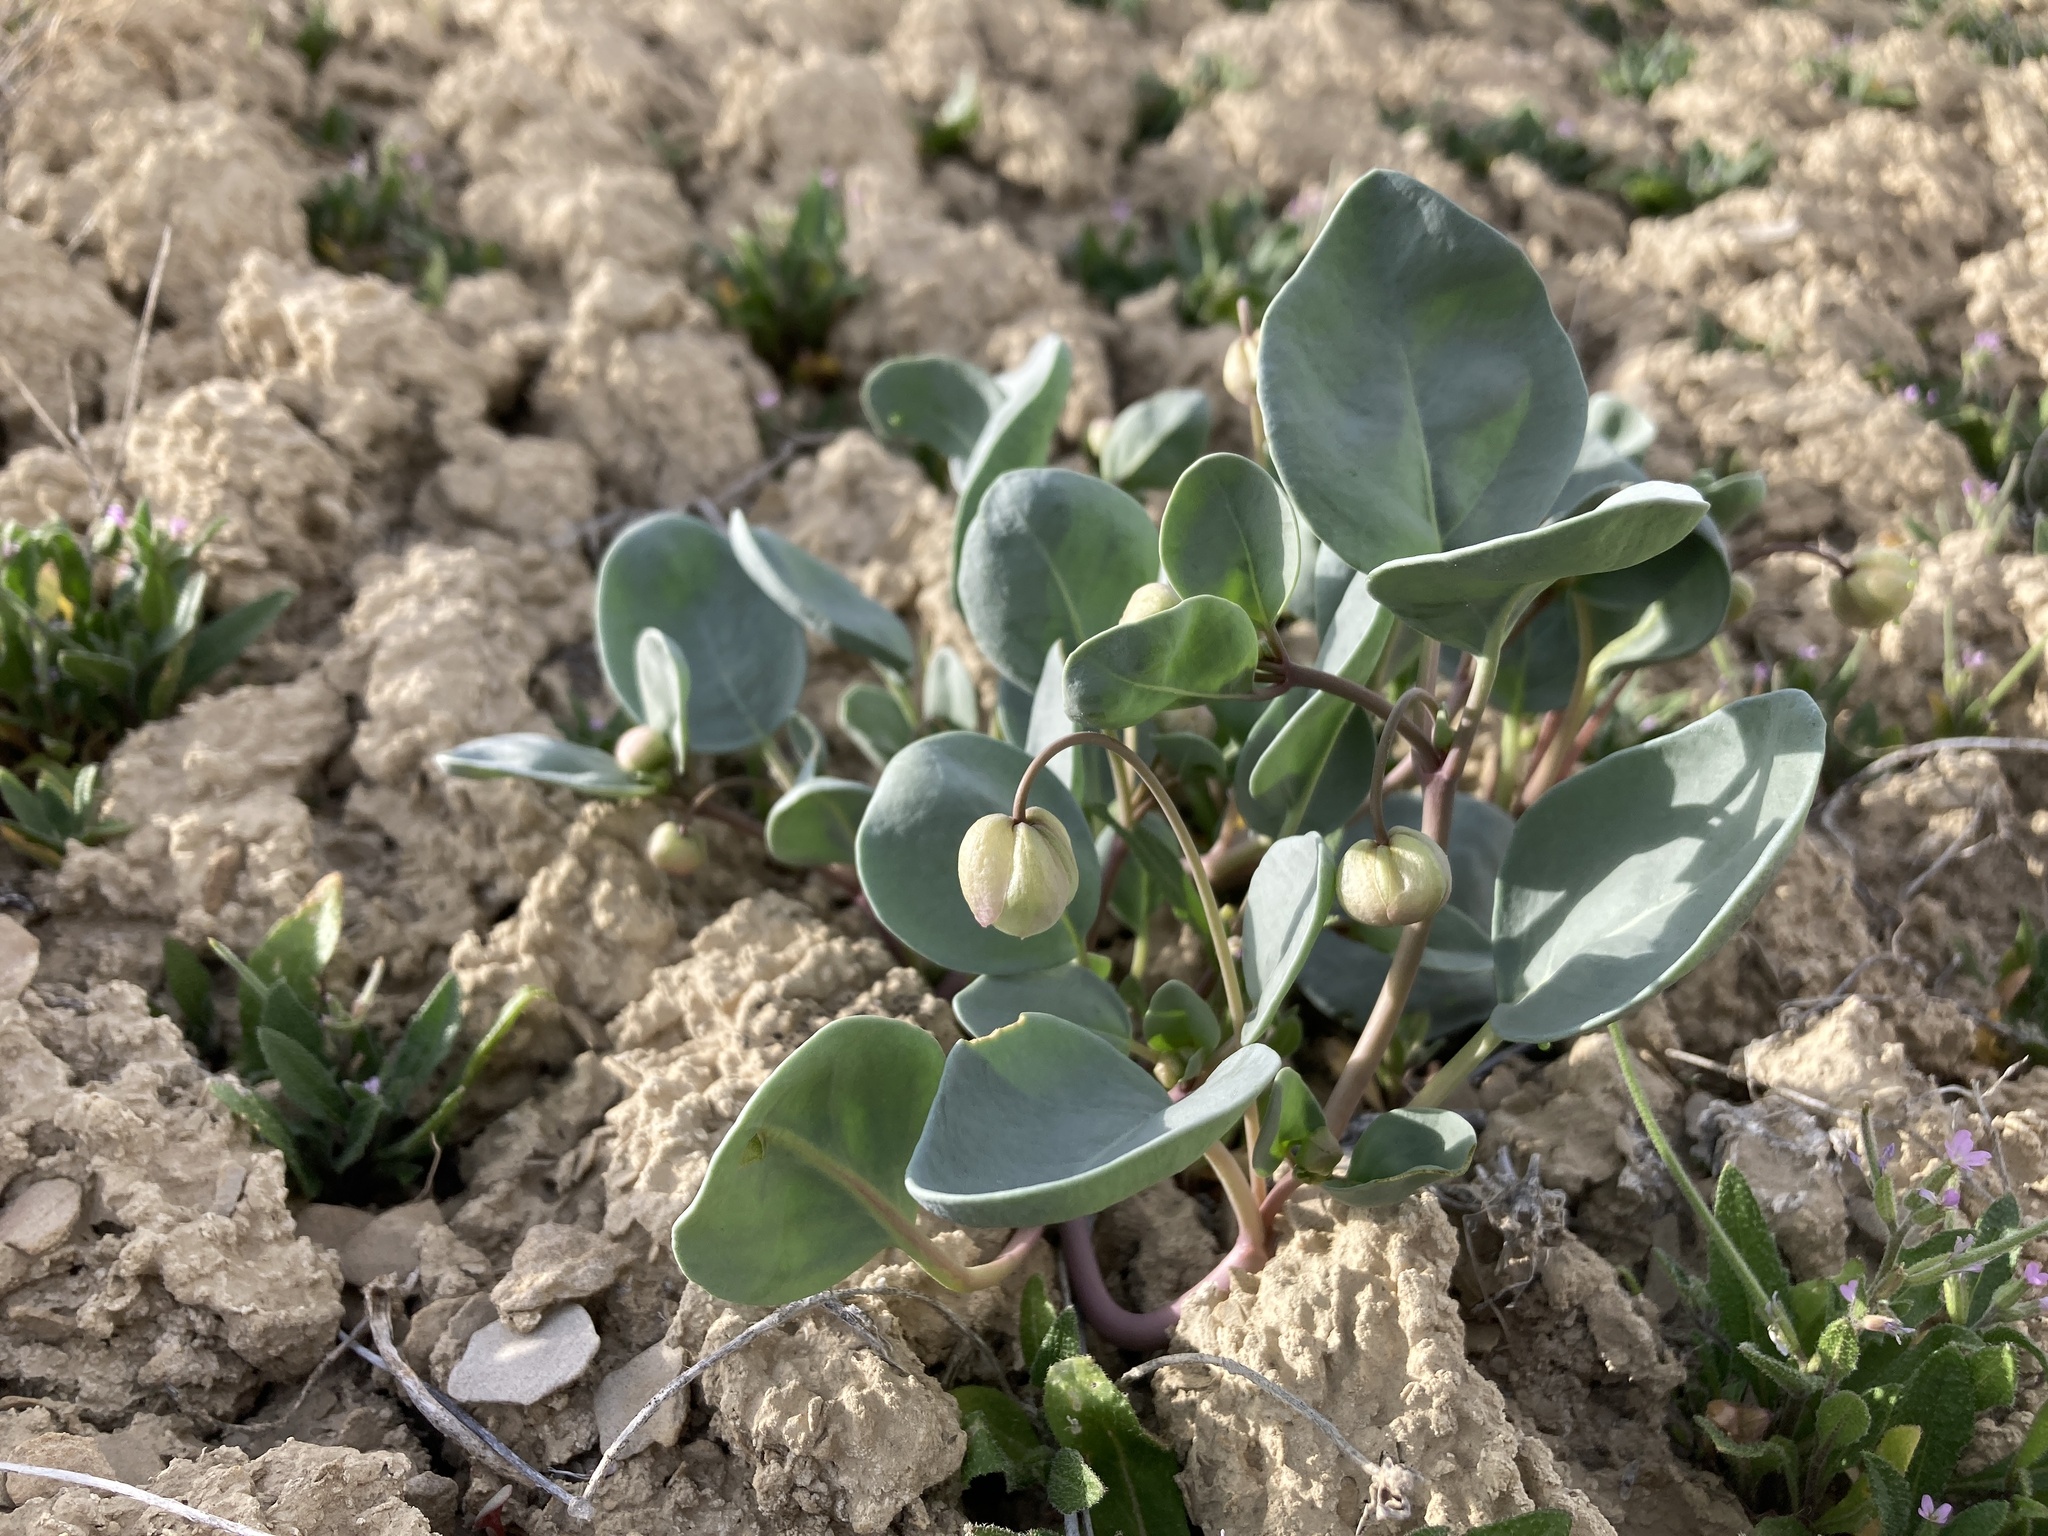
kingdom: Plantae
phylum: Tracheophyta
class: Magnoliopsida
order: Caryophyllales
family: Nyctaginaceae
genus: Abronia
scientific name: Abronia glabrifolia
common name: Clay sand verbena
